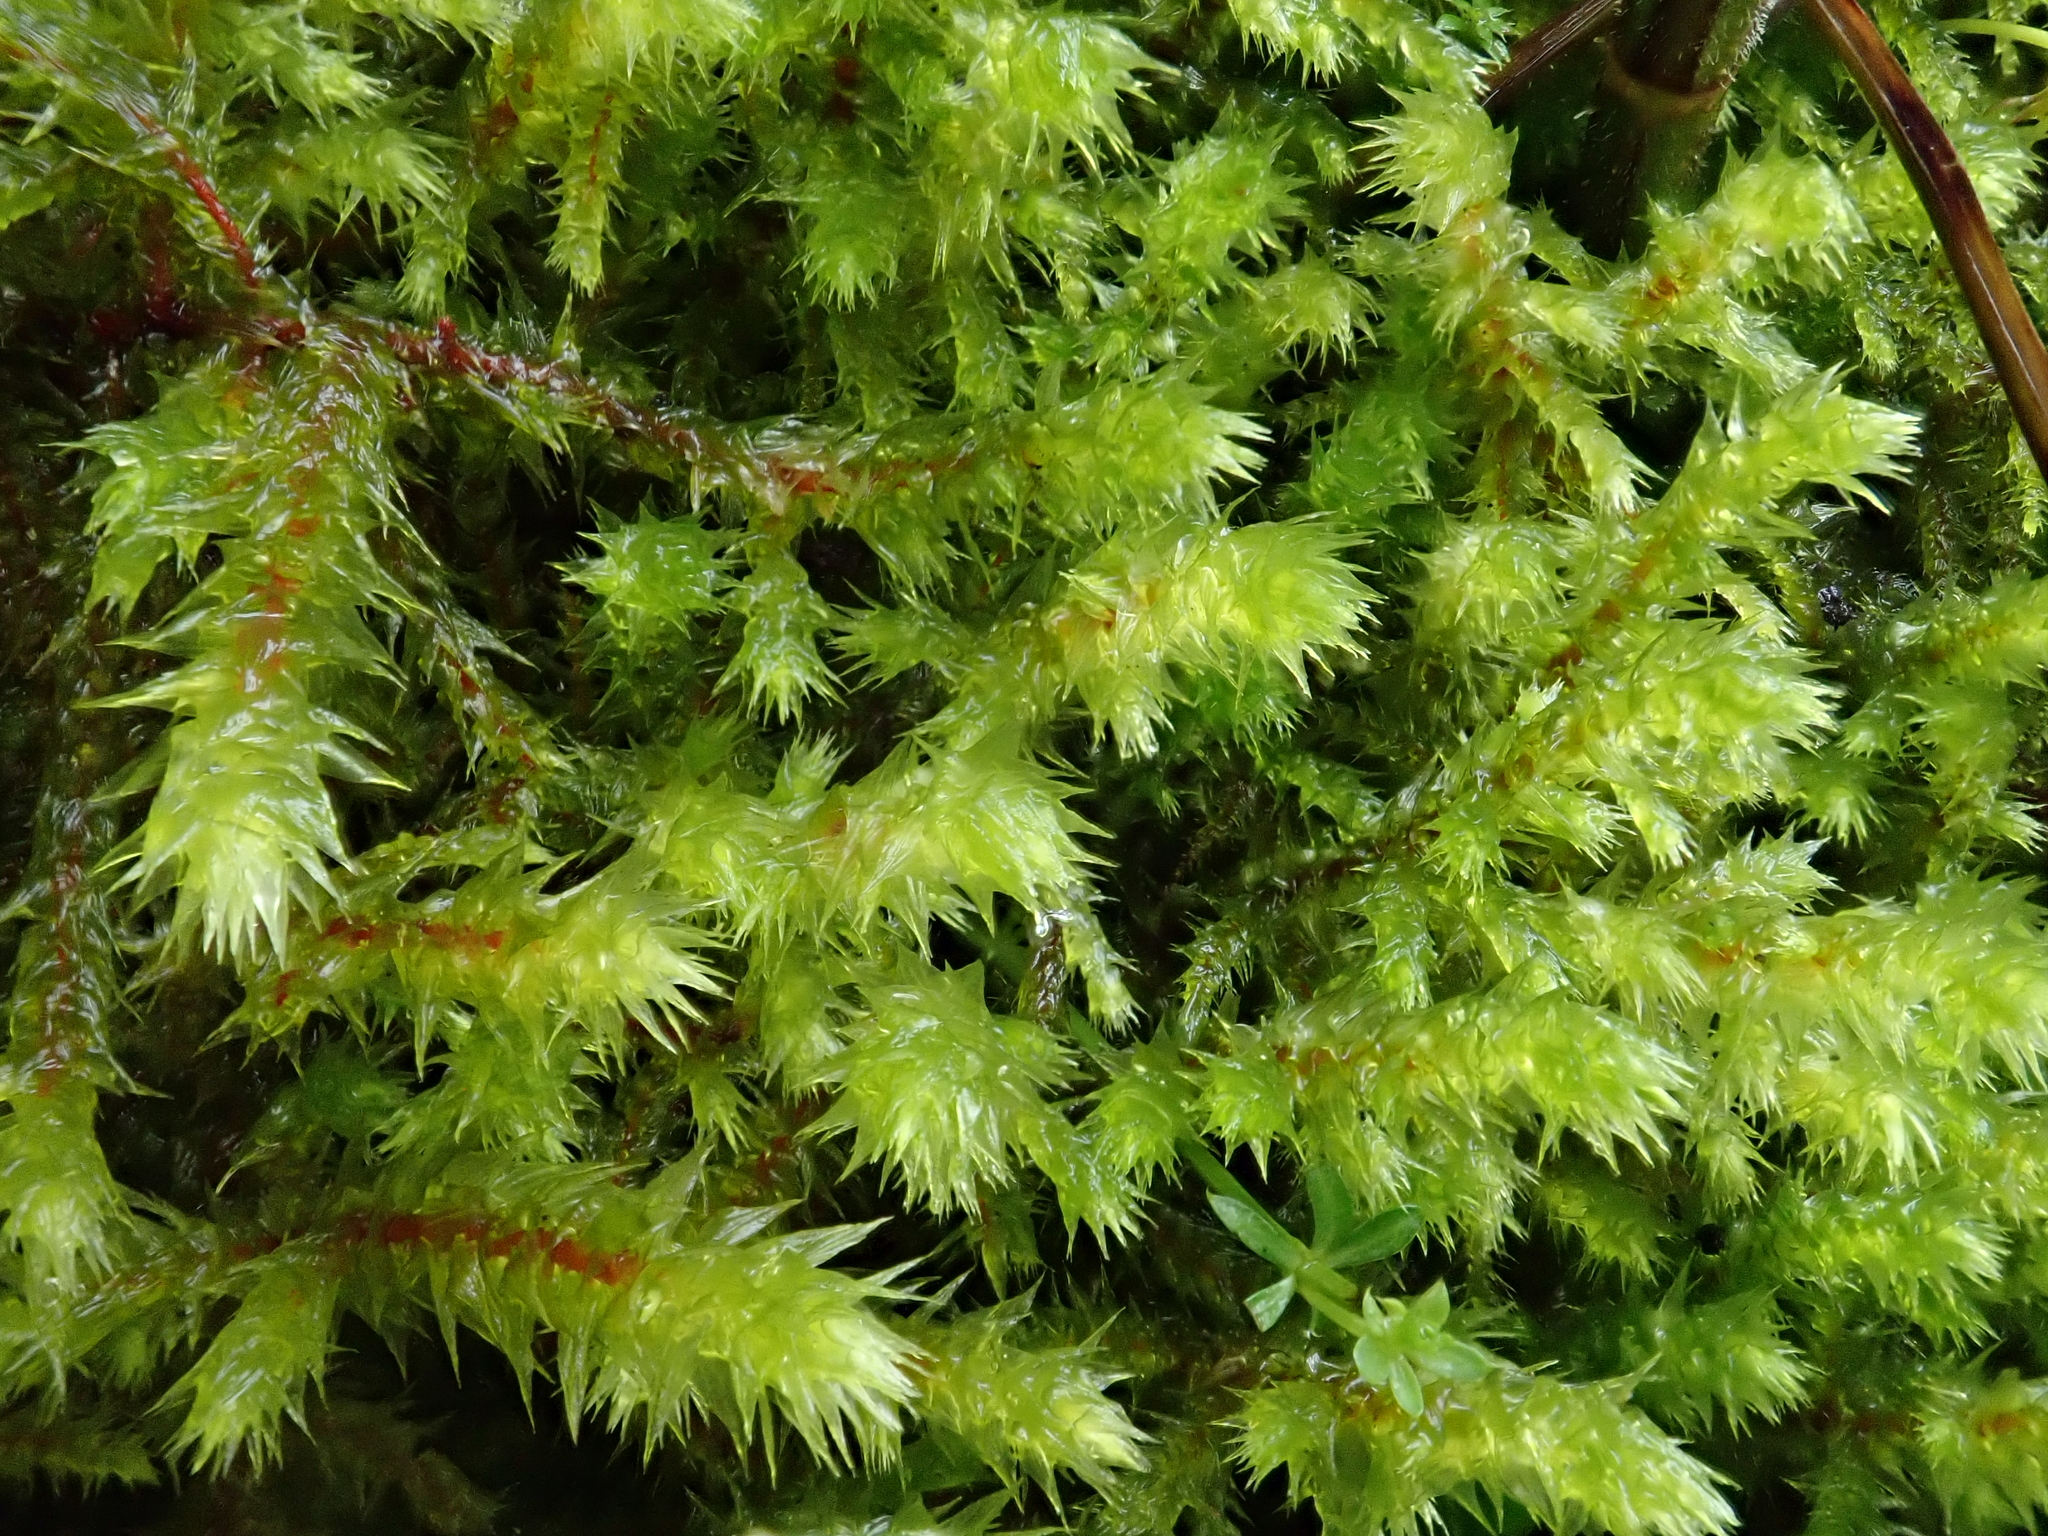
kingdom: Plantae
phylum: Bryophyta
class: Bryopsida
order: Hypnales
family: Hylocomiaceae
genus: Hylocomiadelphus
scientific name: Hylocomiadelphus triquetrus
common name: Rough goose neck moss
